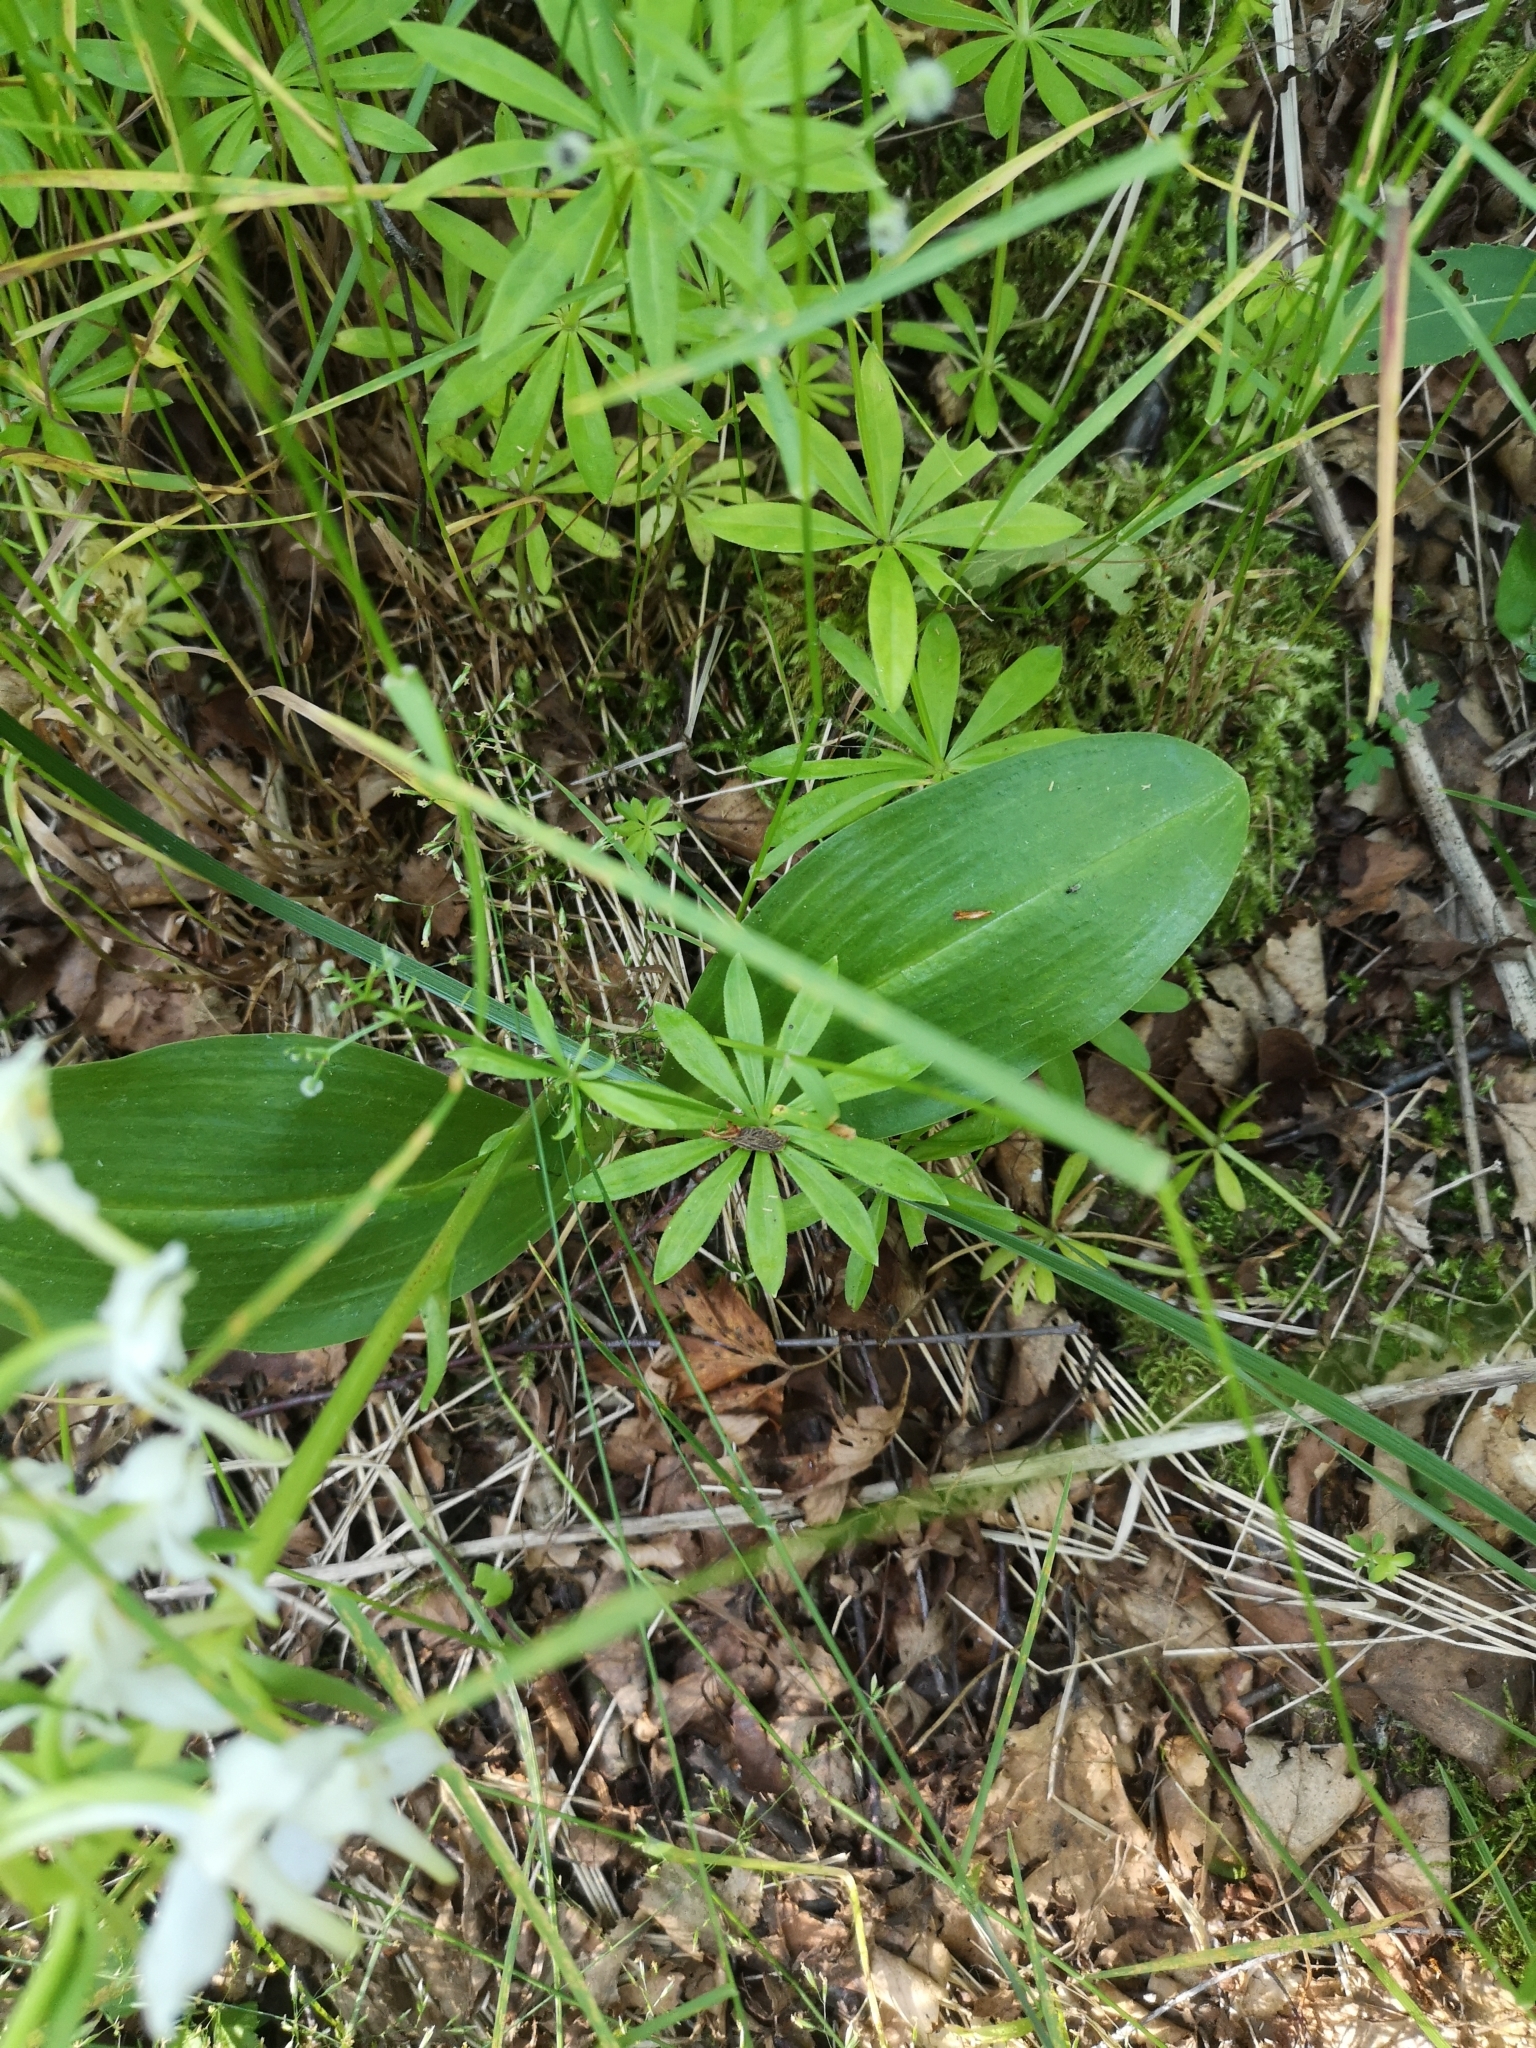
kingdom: Plantae
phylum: Tracheophyta
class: Liliopsida
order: Asparagales
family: Orchidaceae
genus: Platanthera
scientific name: Platanthera chlorantha
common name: Greater butterfly-orchid
